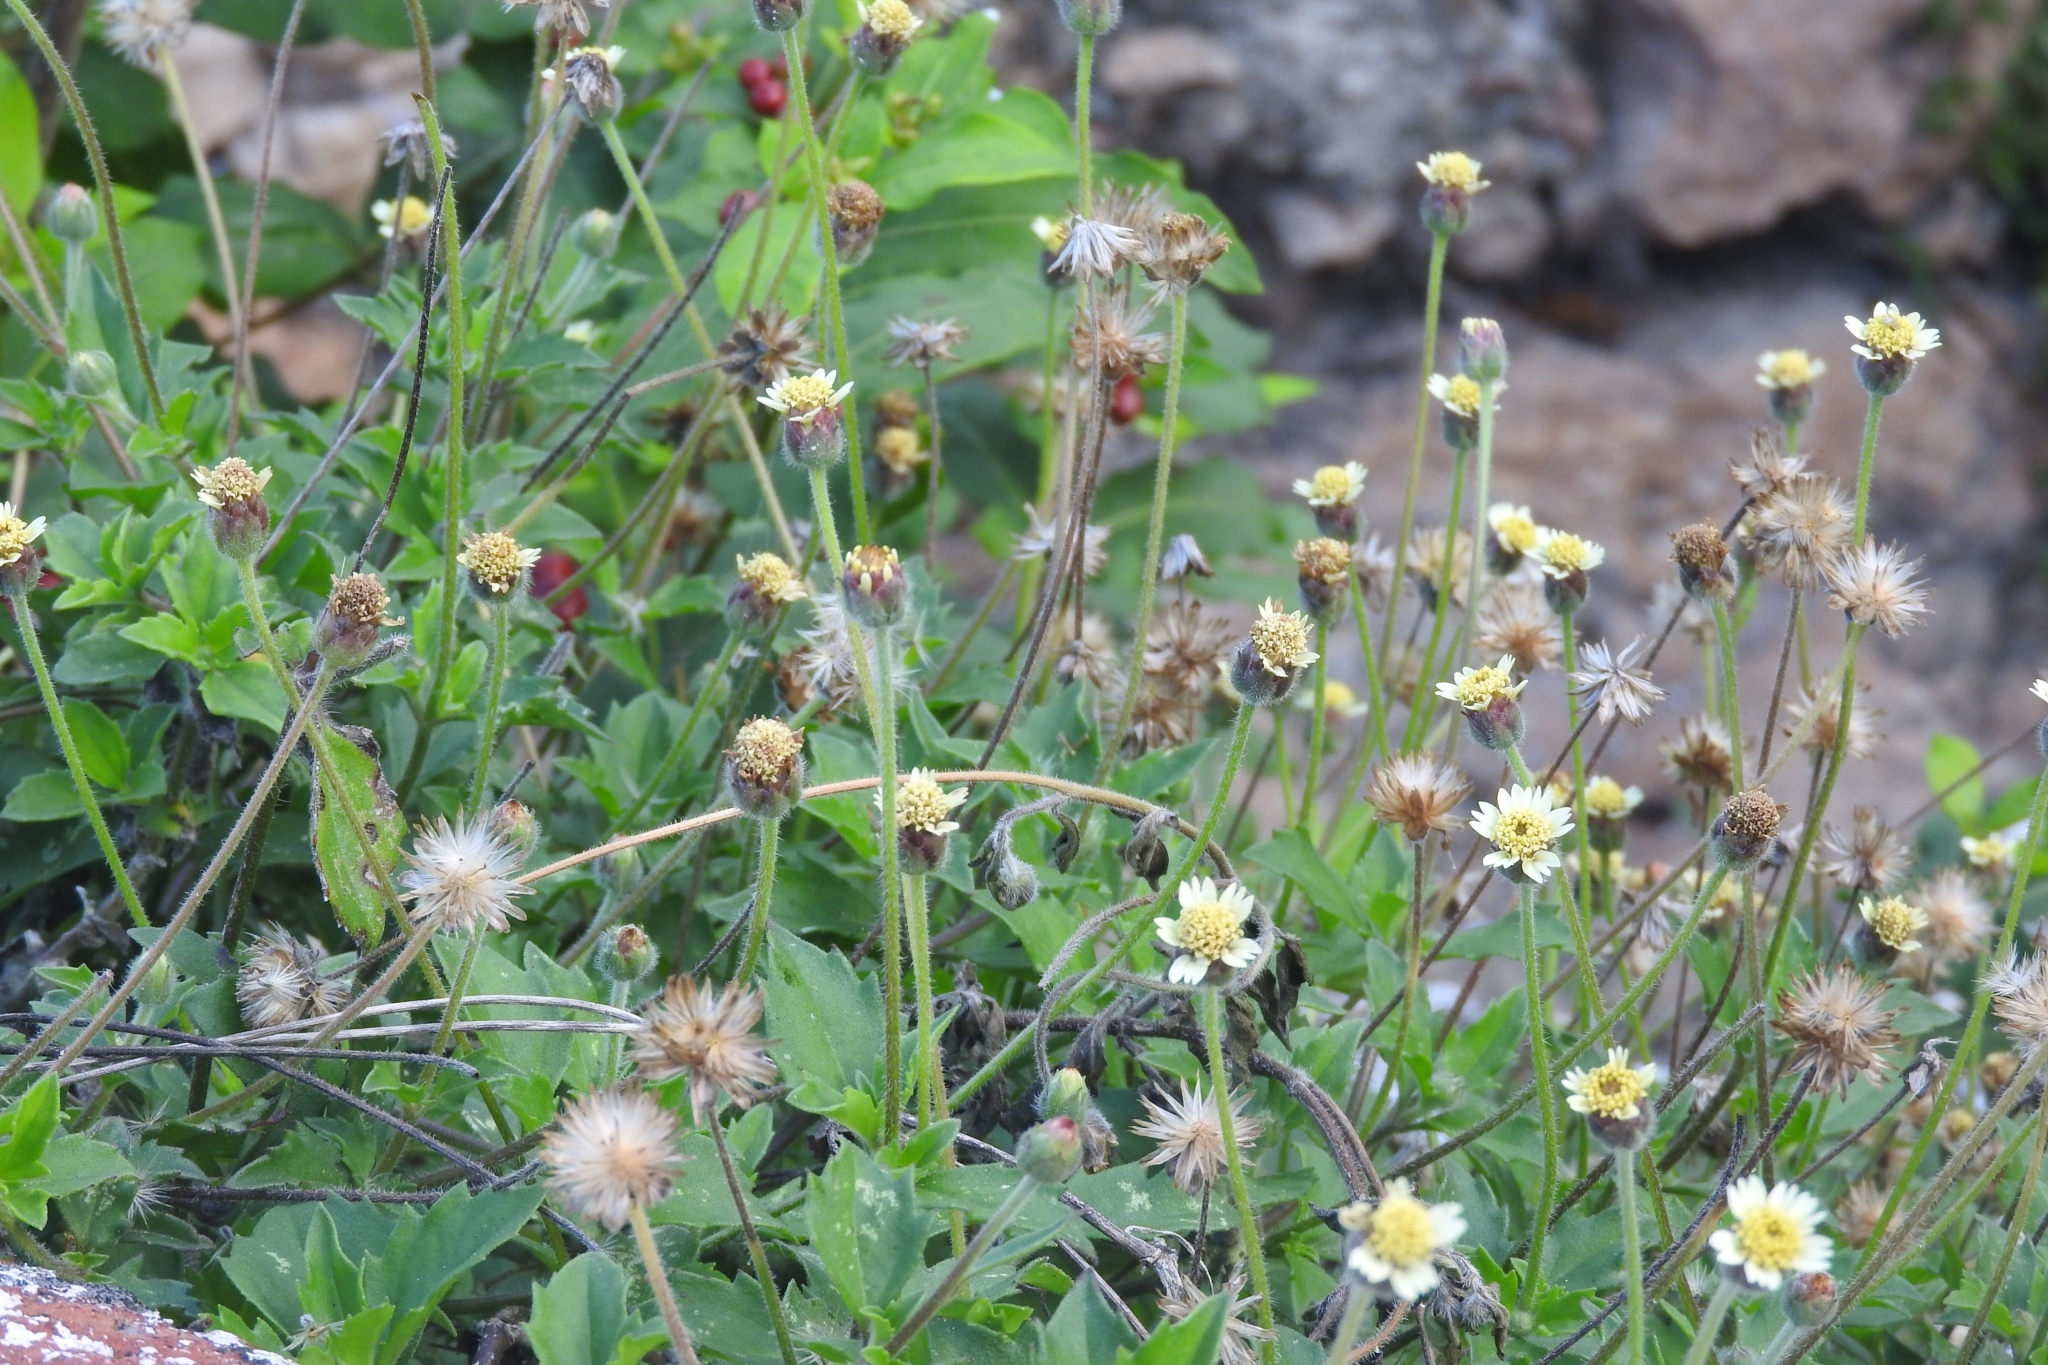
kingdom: Plantae
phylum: Tracheophyta
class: Magnoliopsida
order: Asterales
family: Asteraceae
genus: Tridax
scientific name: Tridax procumbens
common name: Coatbuttons
